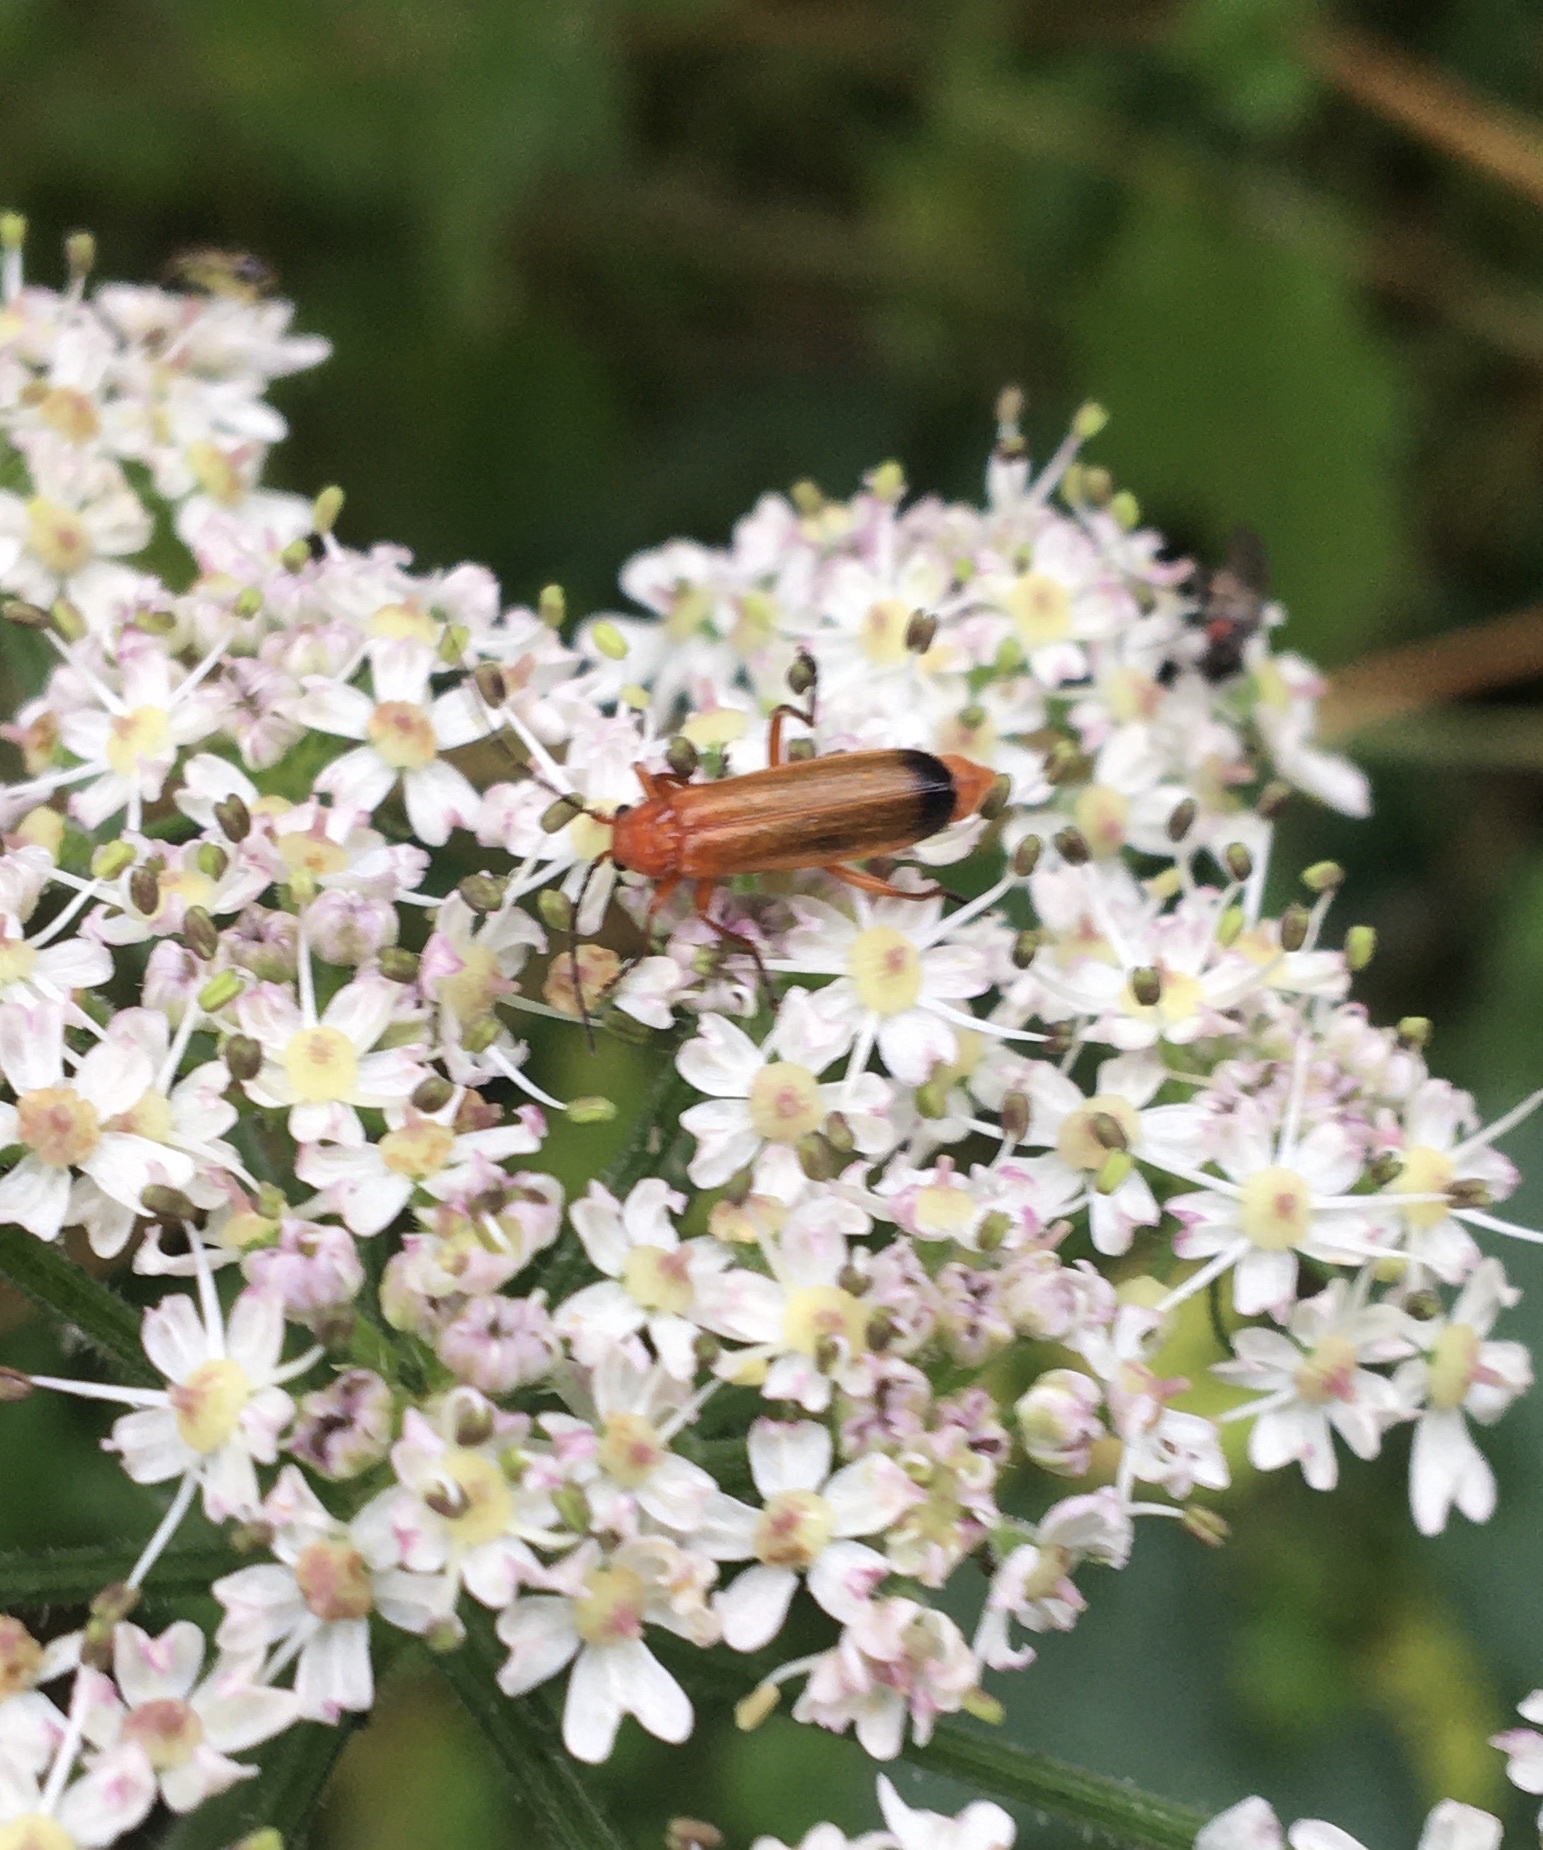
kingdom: Animalia
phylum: Arthropoda
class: Insecta
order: Coleoptera
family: Cantharidae
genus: Rhagonycha
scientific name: Rhagonycha fulva
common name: Common red soldier beetle
